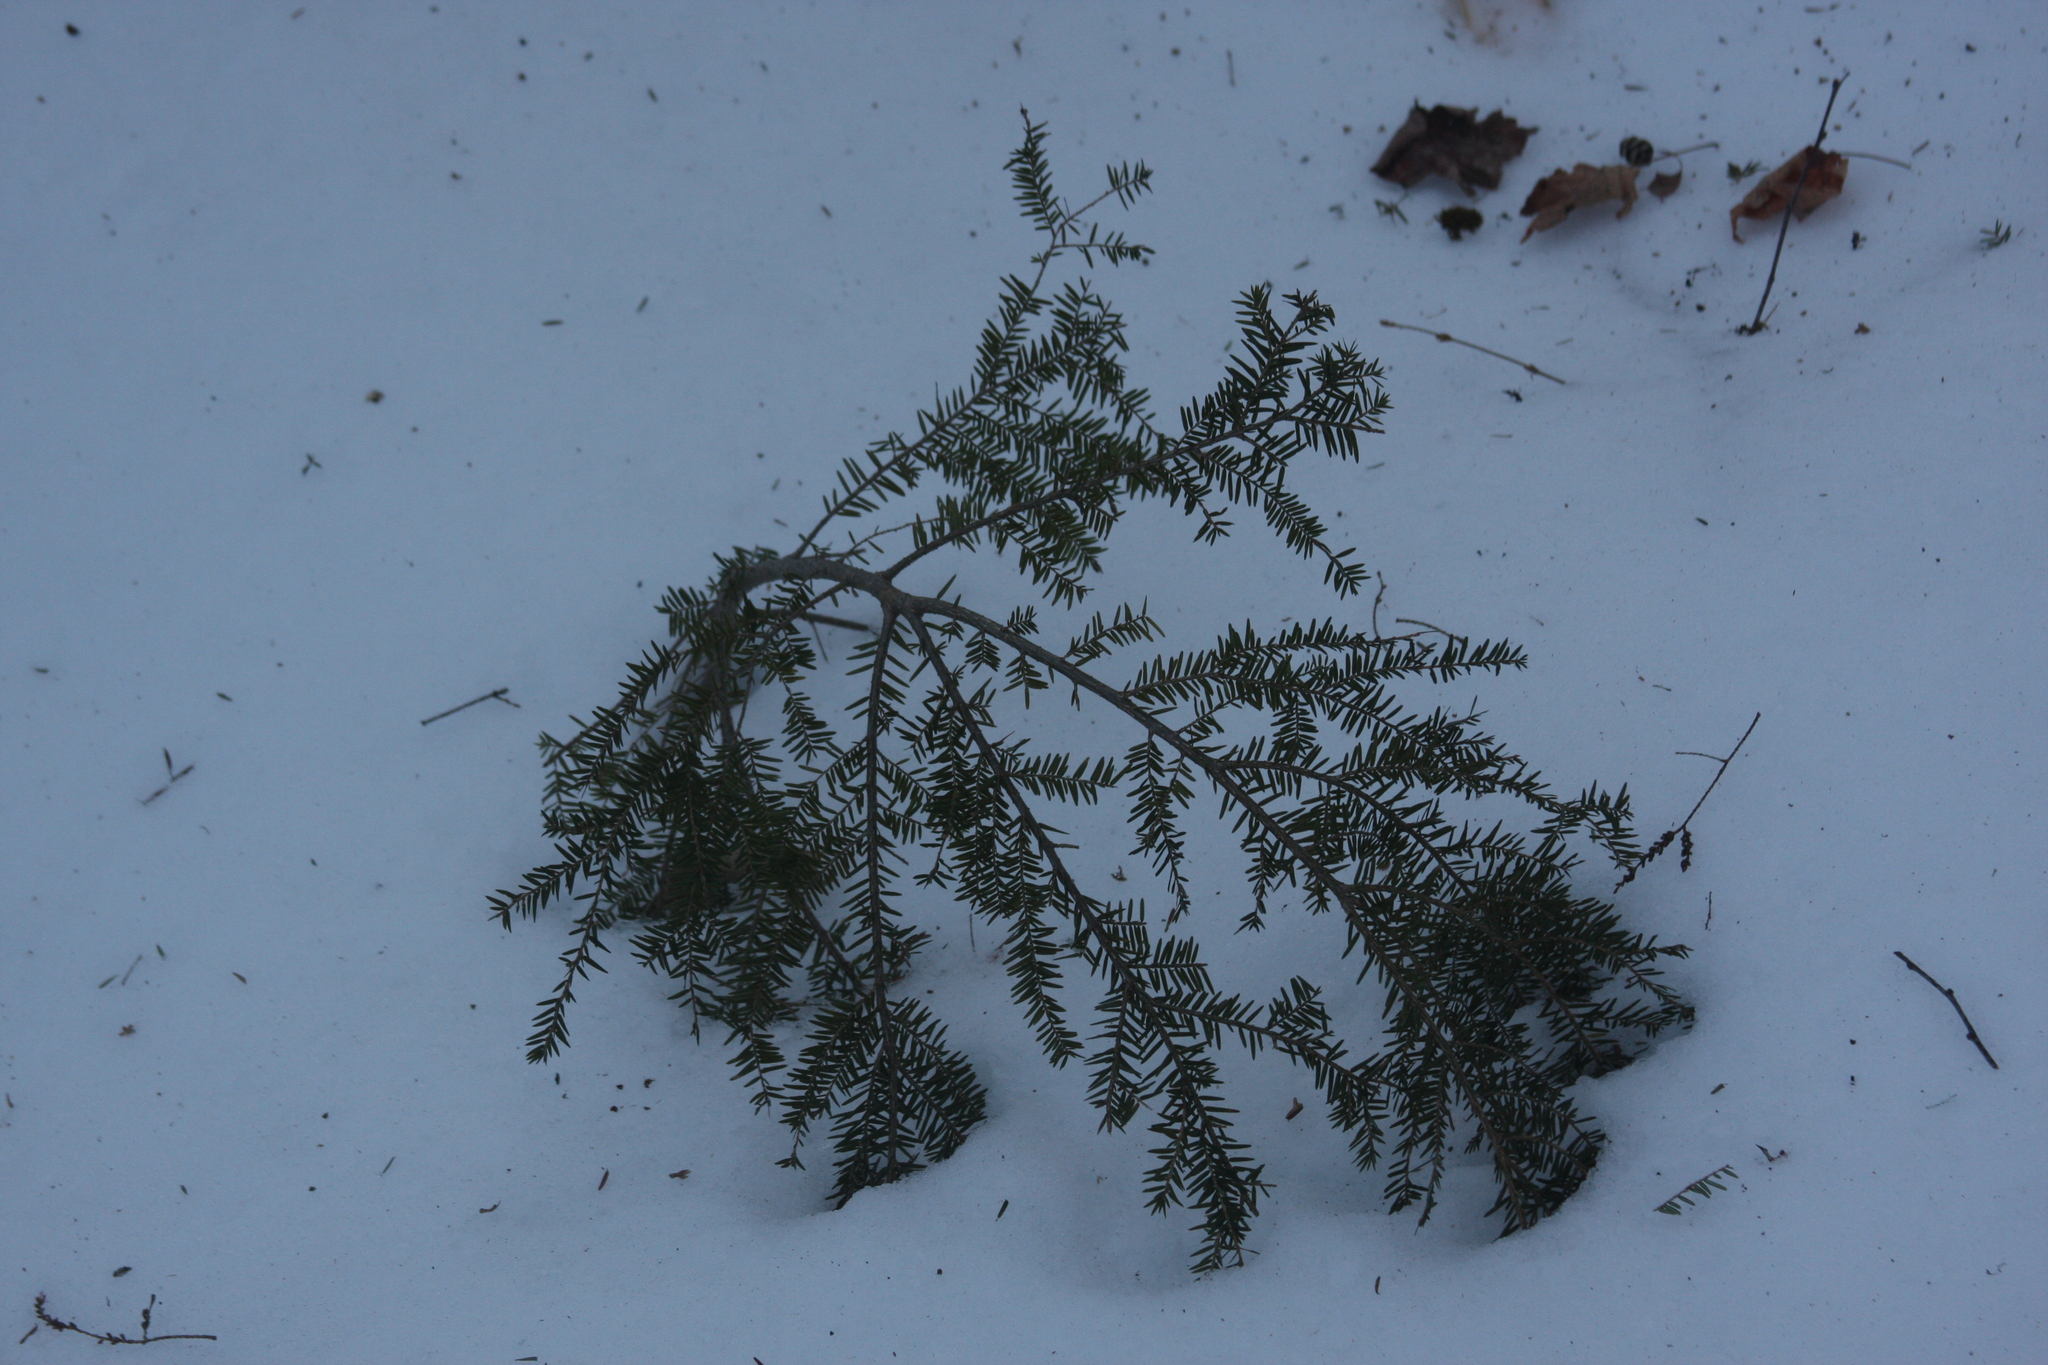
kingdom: Plantae
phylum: Tracheophyta
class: Pinopsida
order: Pinales
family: Pinaceae
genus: Tsuga
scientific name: Tsuga canadensis
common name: Eastern hemlock
